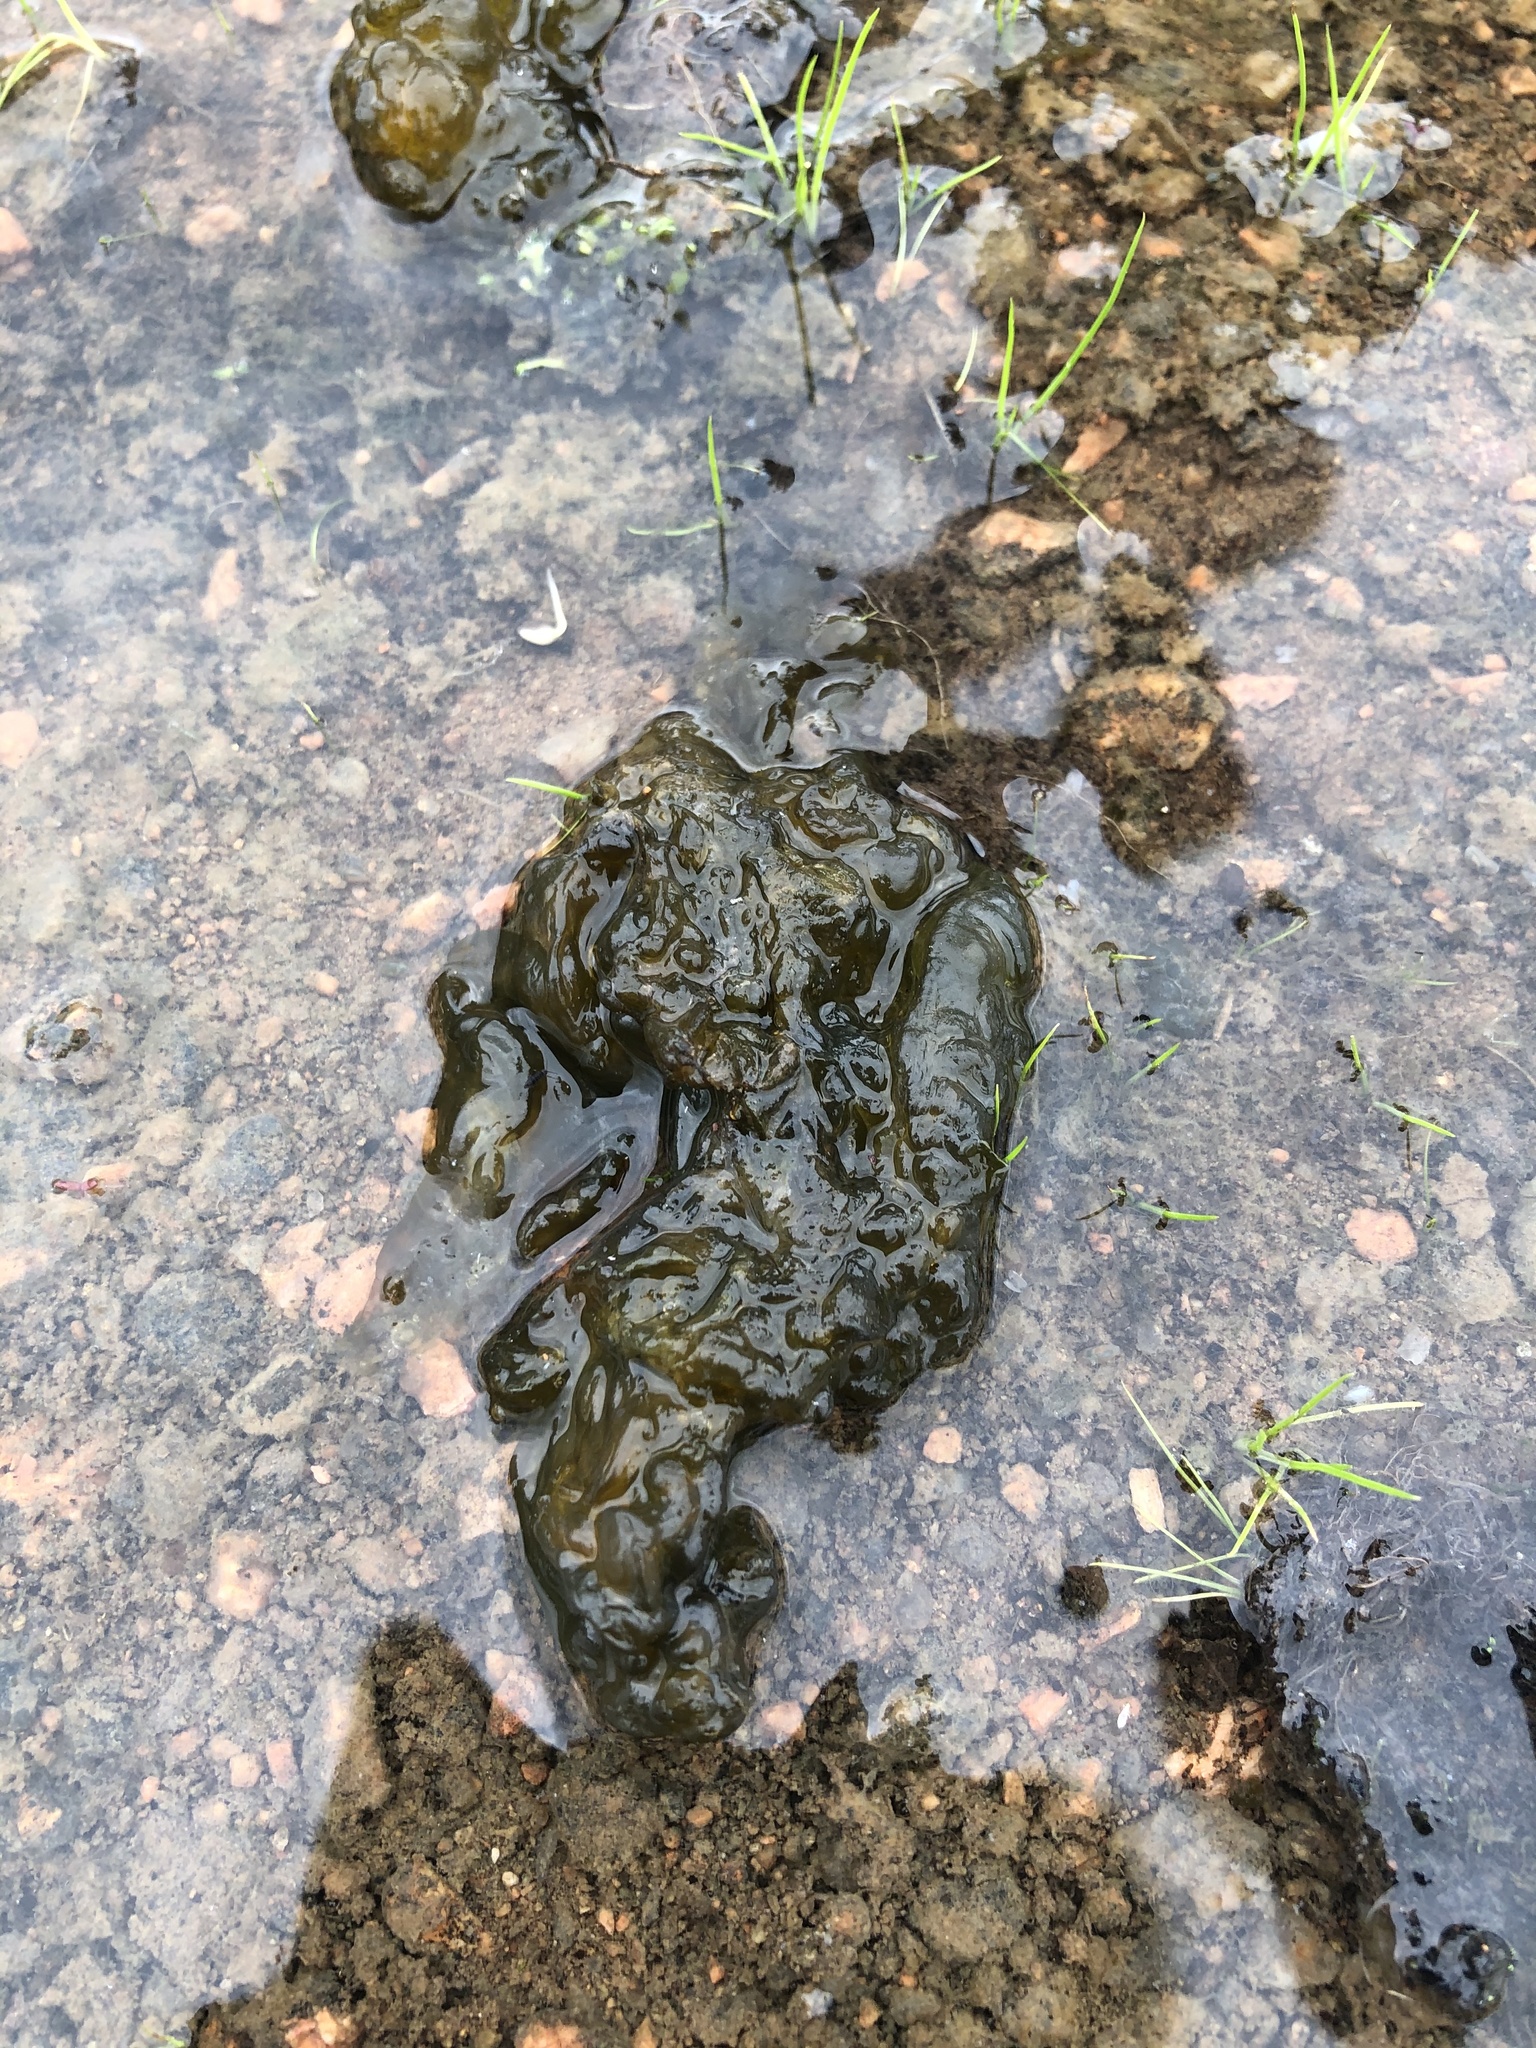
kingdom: Bacteria
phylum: Cyanobacteria
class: Cyanobacteriia
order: Cyanobacteriales
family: Nostocaceae
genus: Nostoc
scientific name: Nostoc commune
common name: Star jelly
